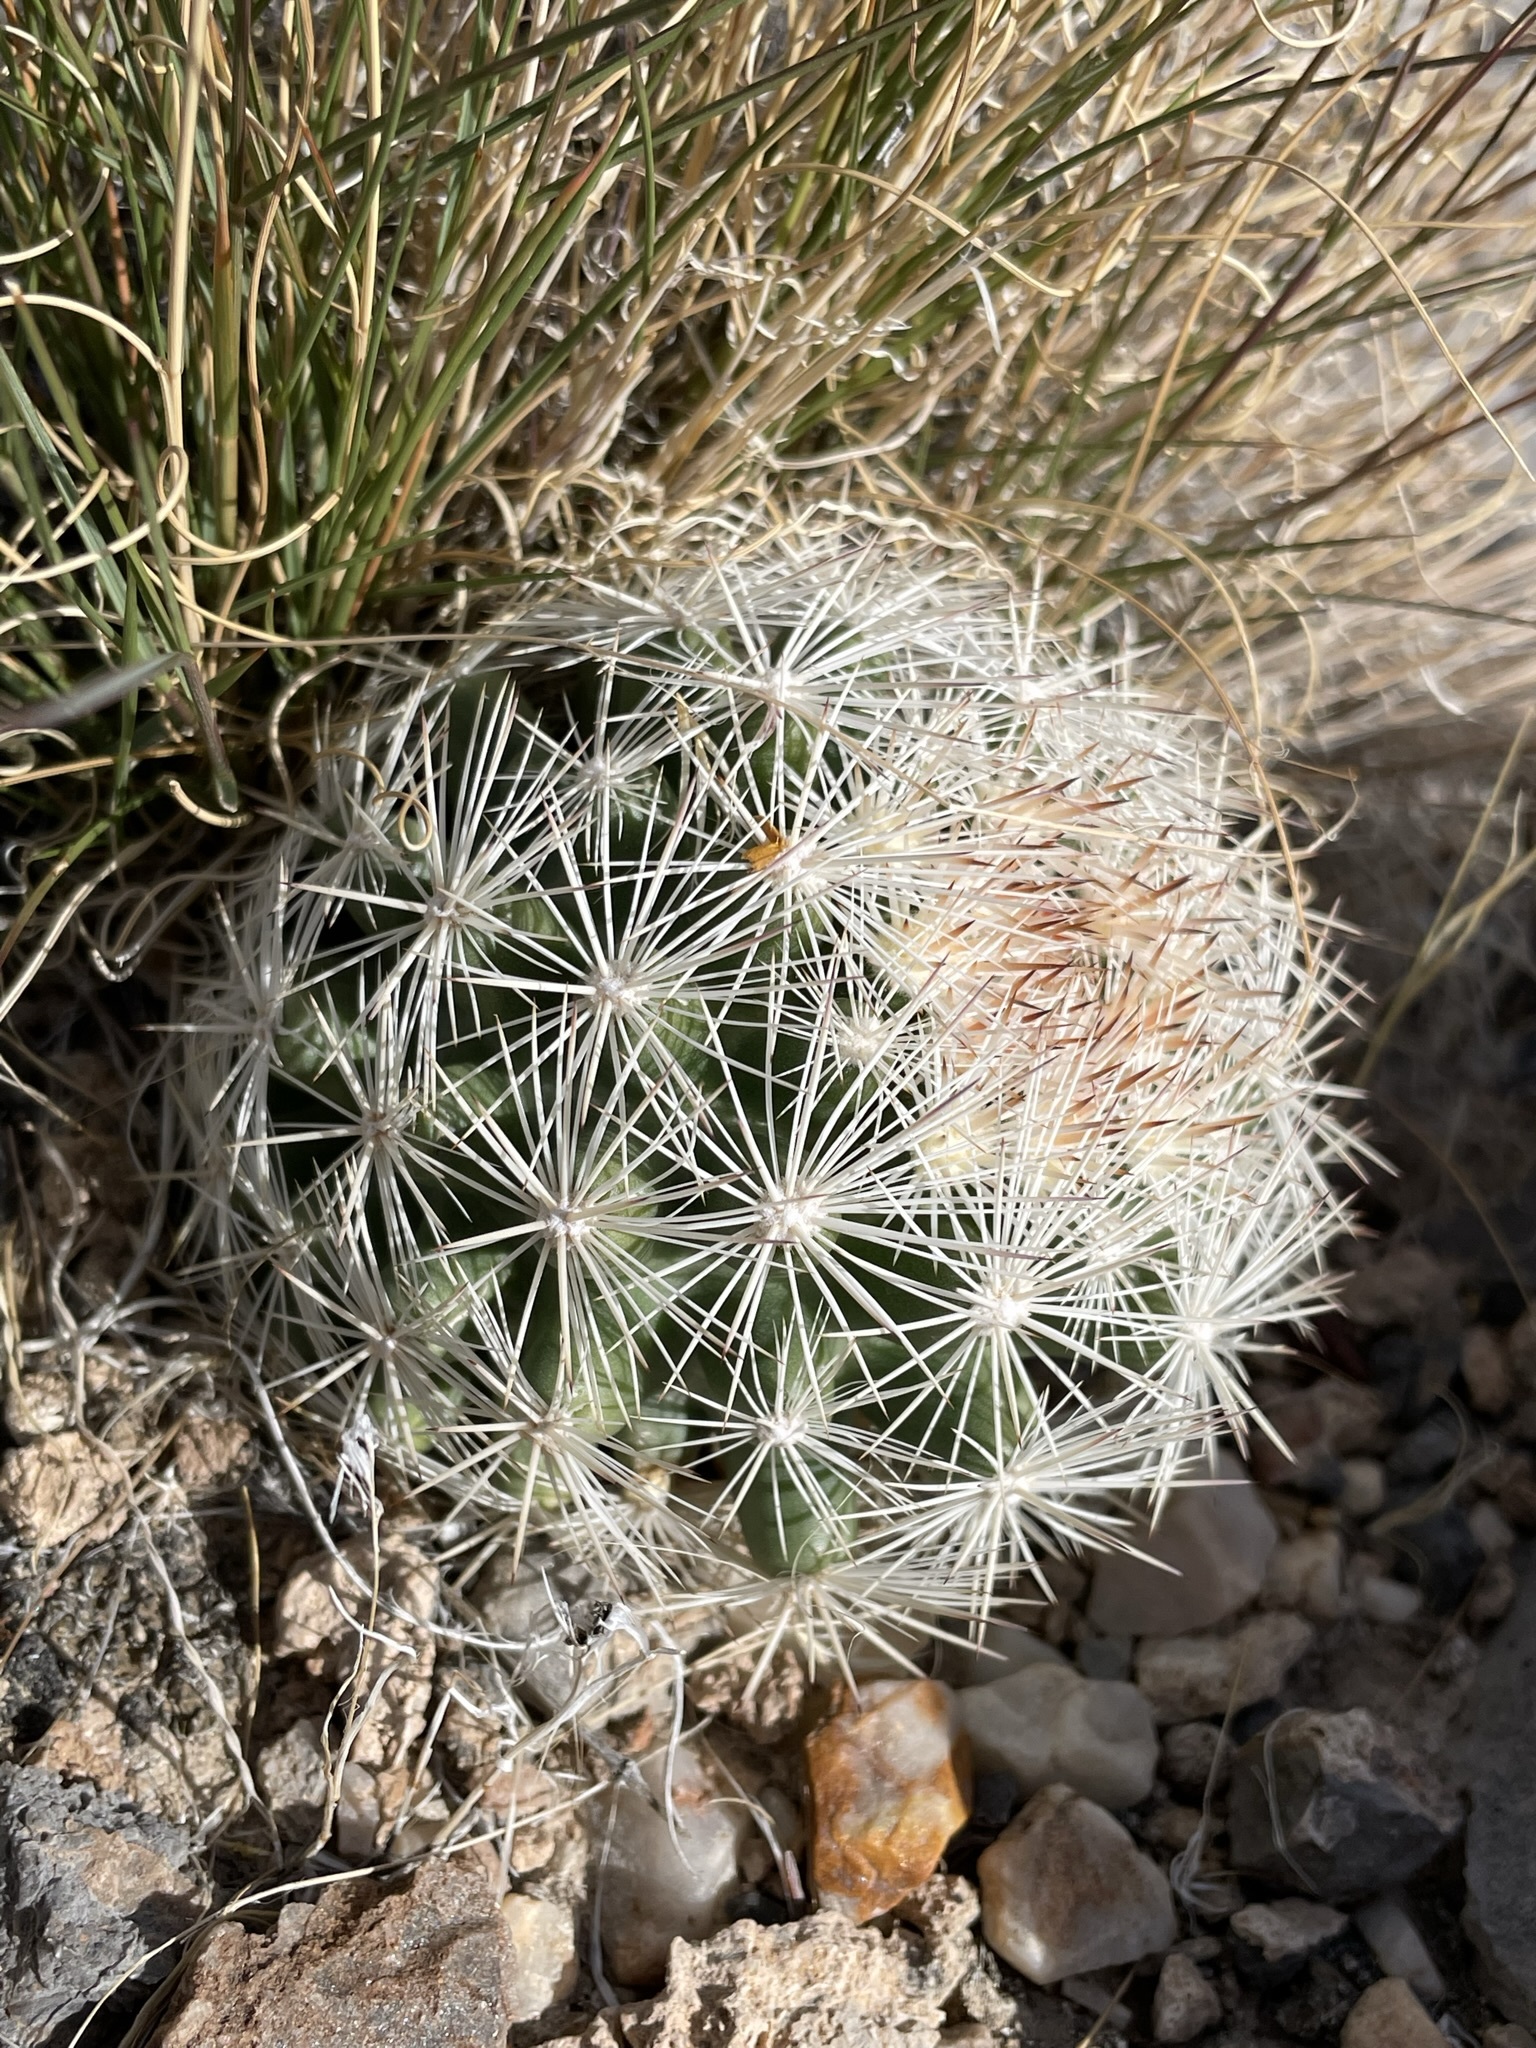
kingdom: Plantae
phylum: Tracheophyta
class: Magnoliopsida
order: Caryophyllales
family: Cactaceae
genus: Pelecyphora
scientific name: Pelecyphora vivipara
